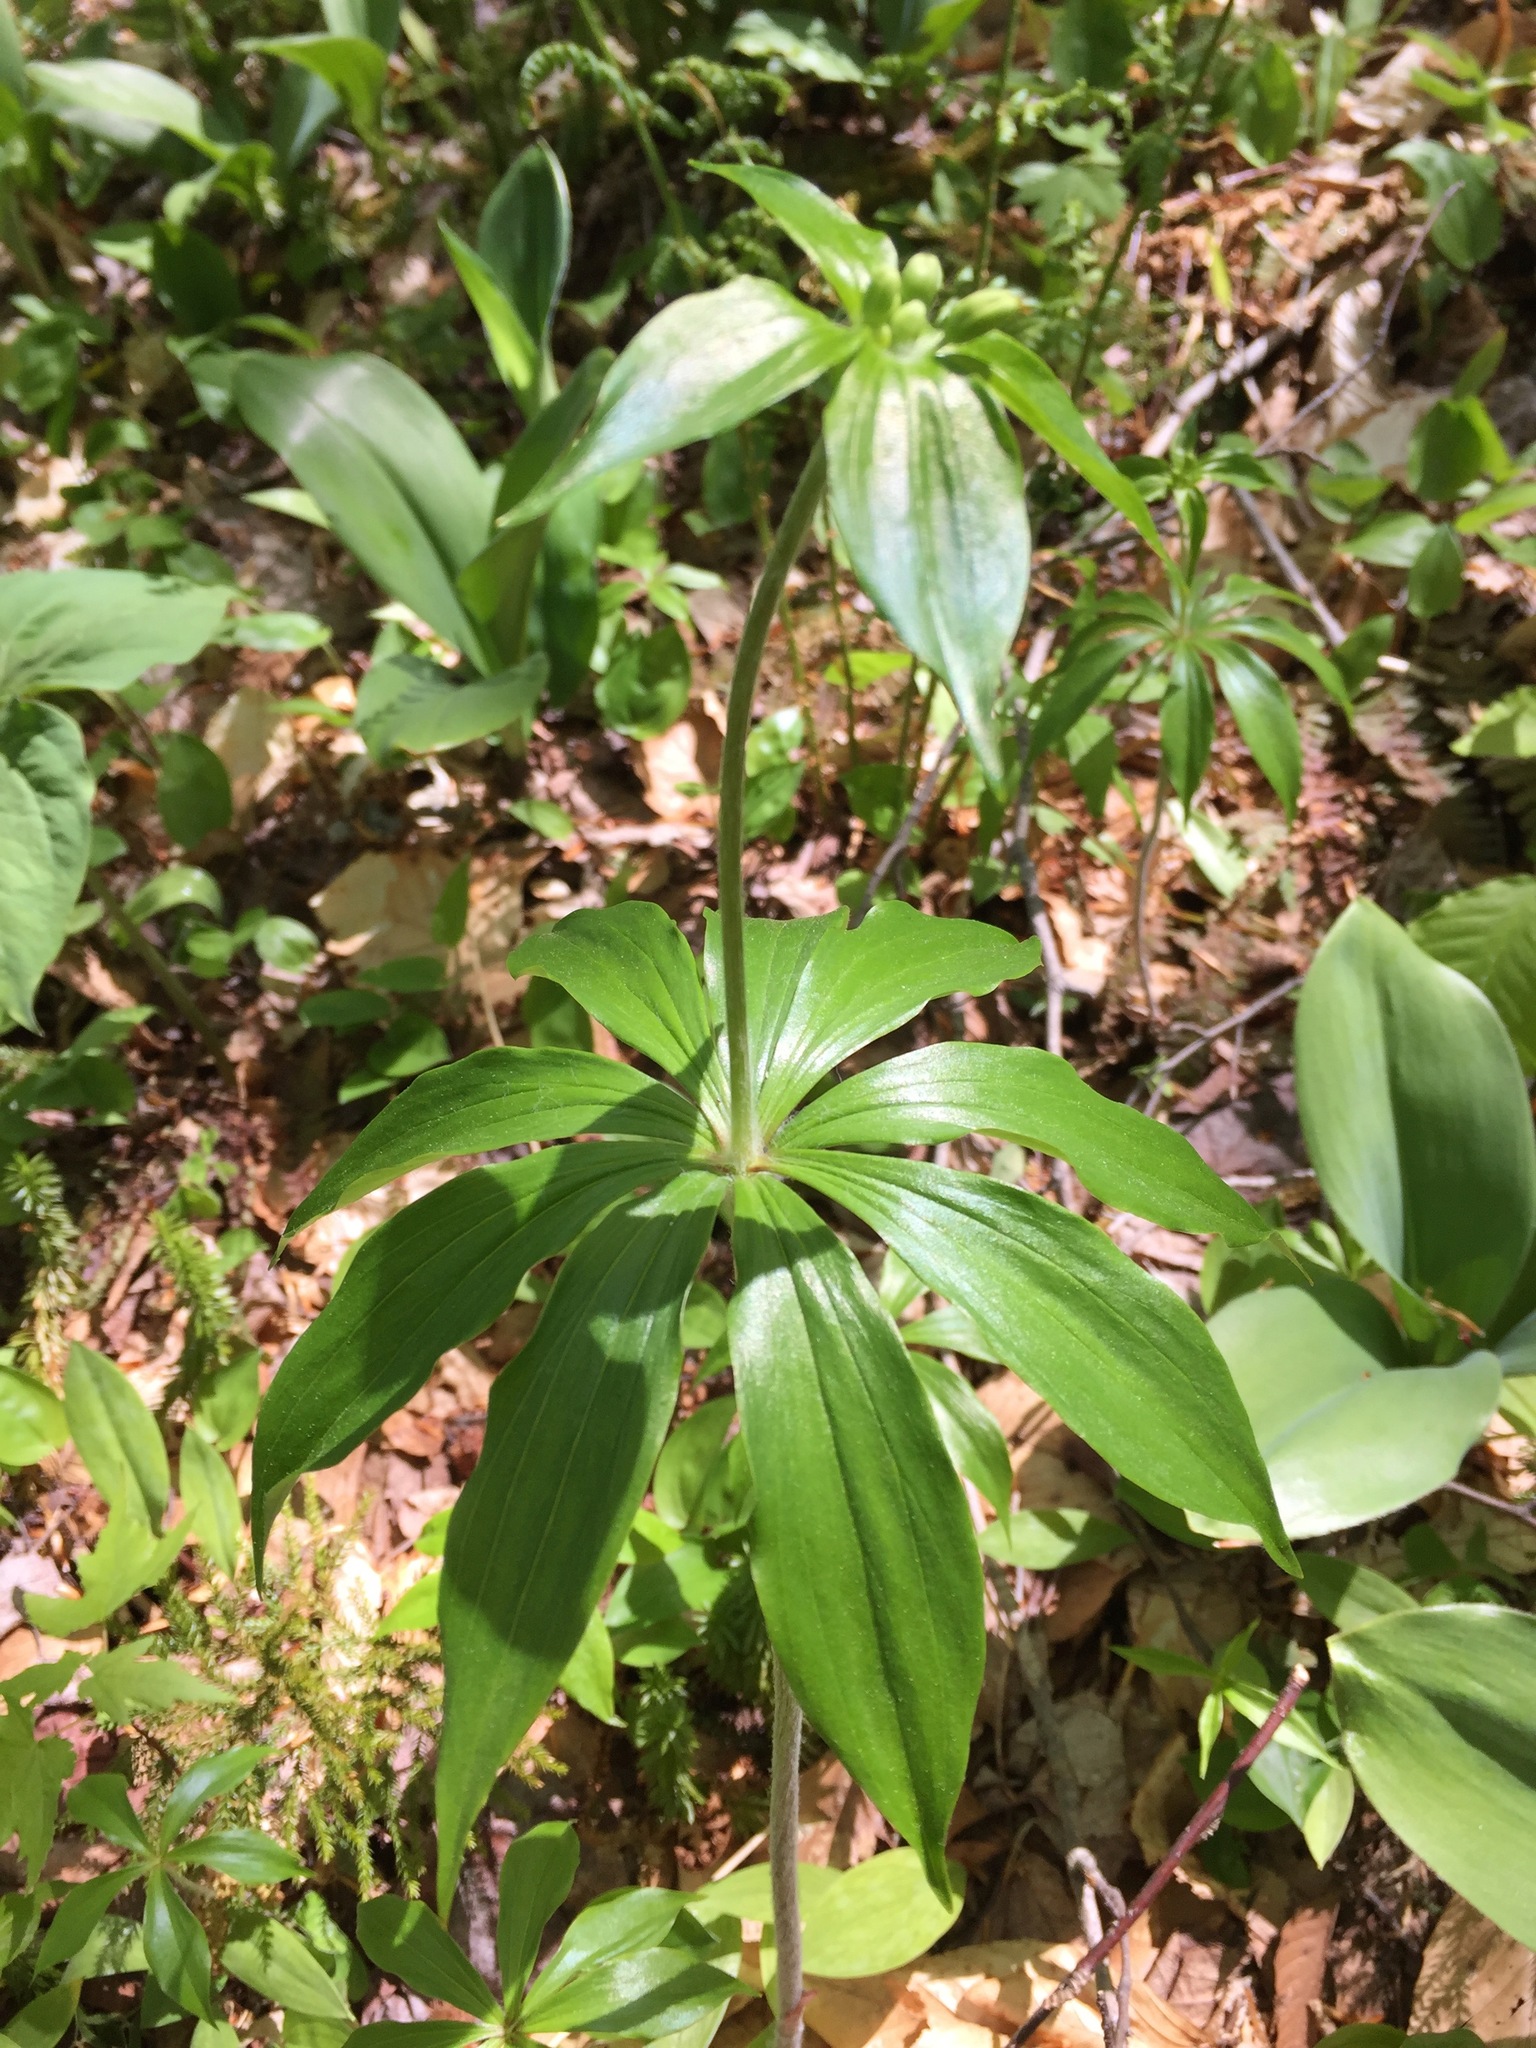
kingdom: Plantae
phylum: Tracheophyta
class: Liliopsida
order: Liliales
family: Liliaceae
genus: Medeola
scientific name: Medeola virginiana
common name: Indian cucumber-root
